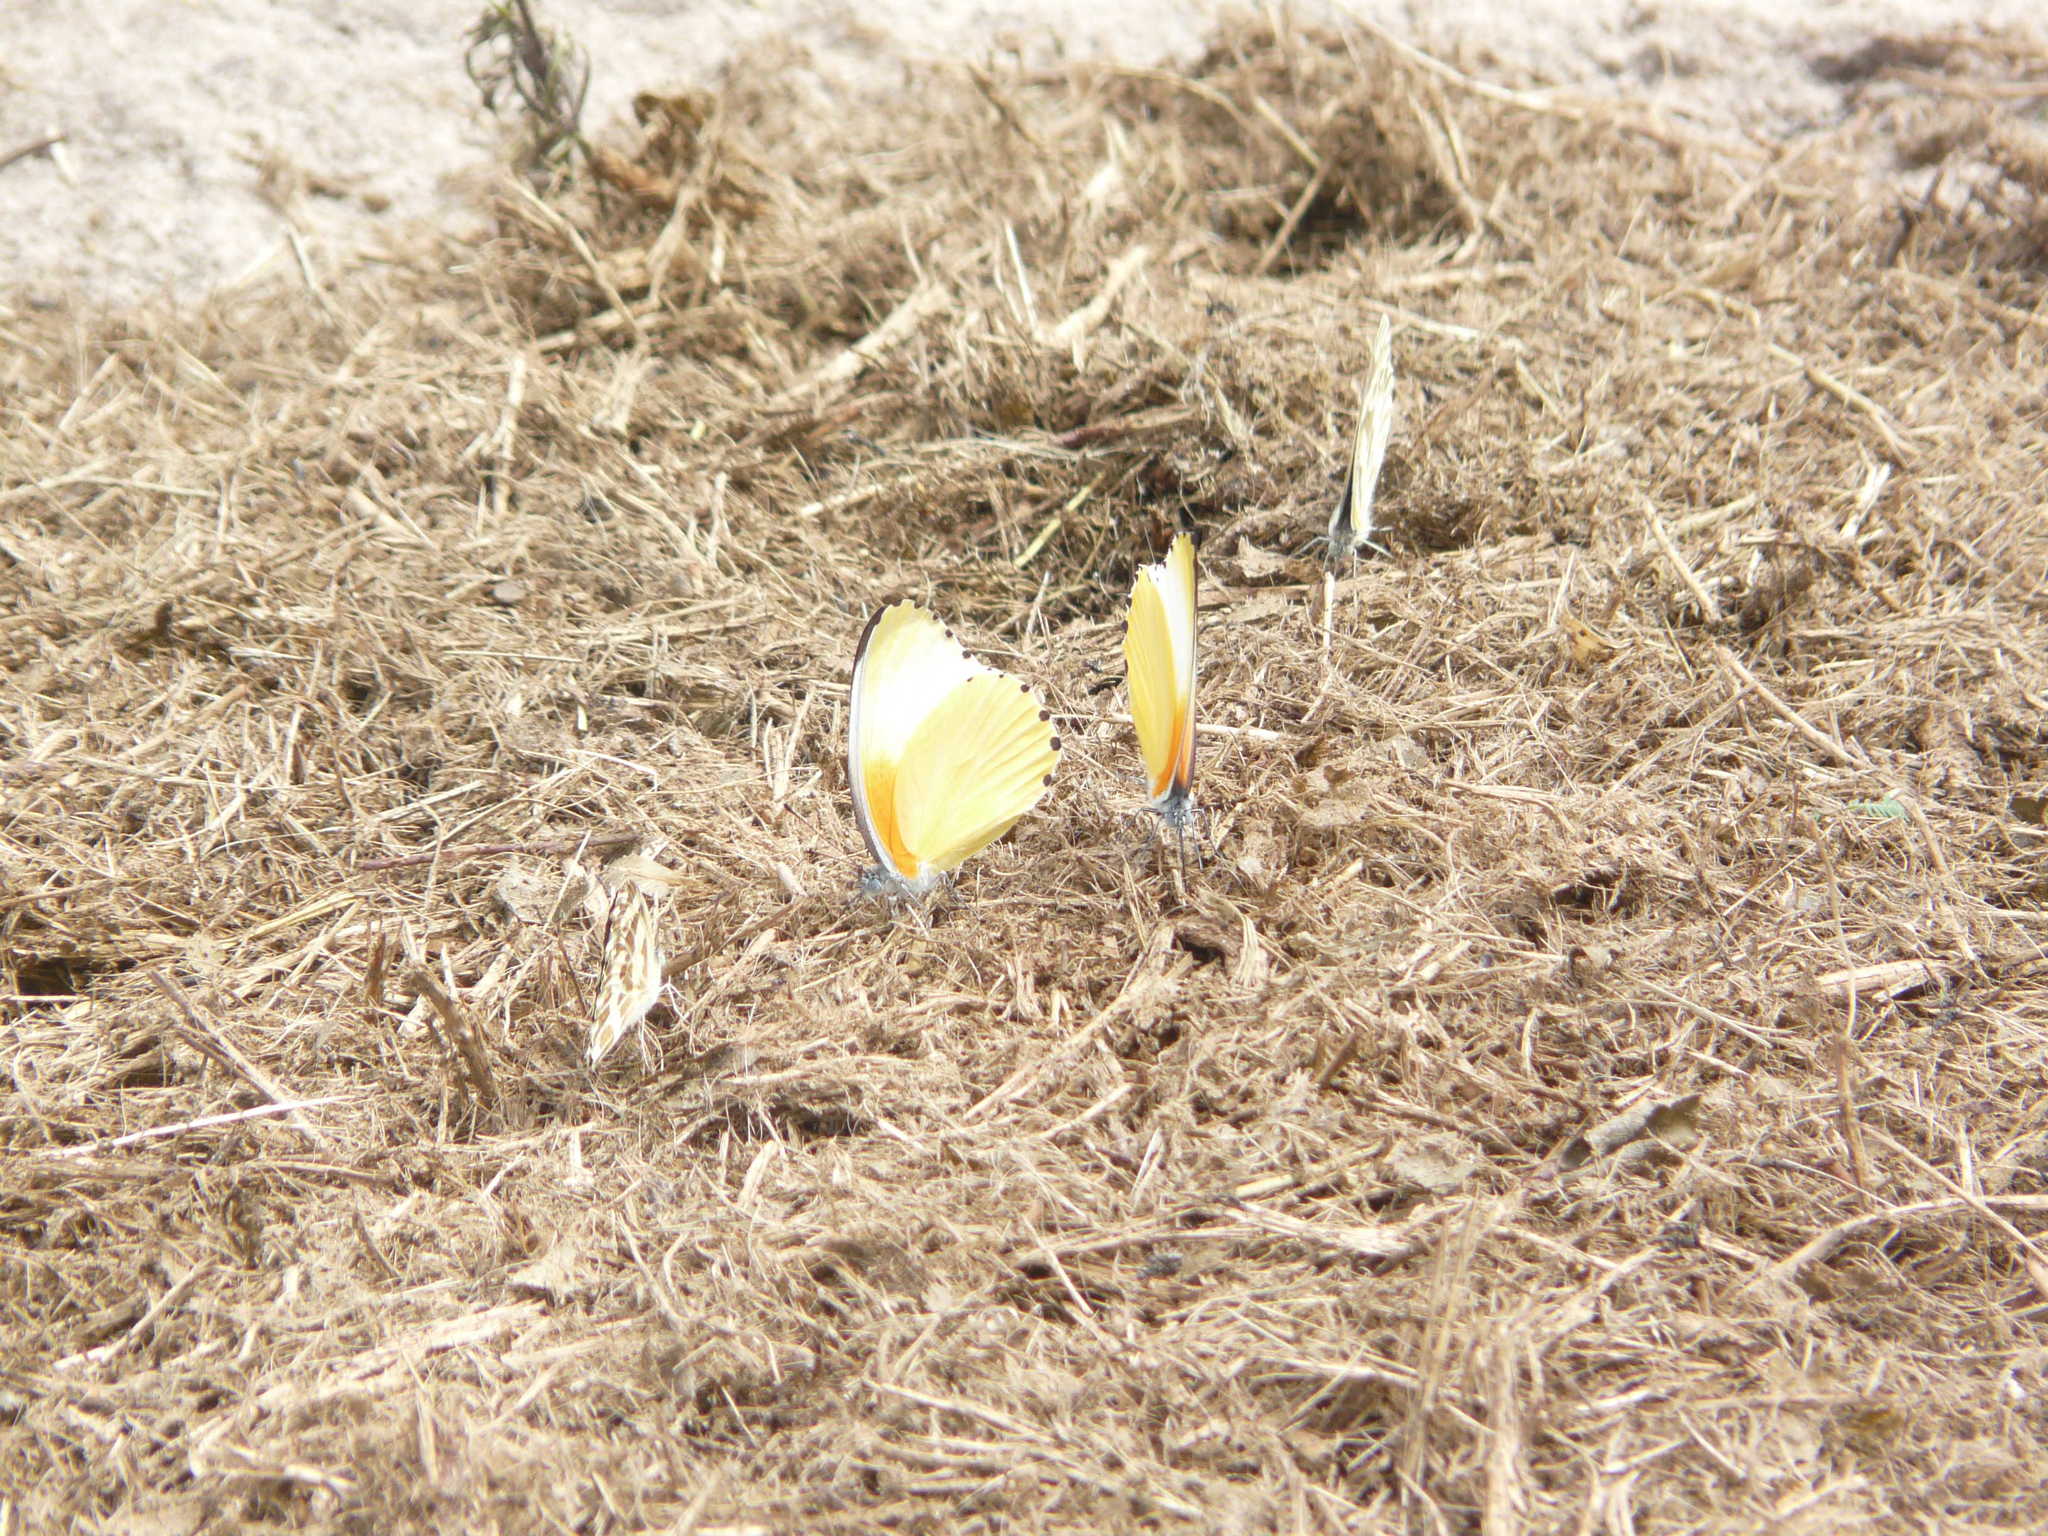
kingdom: Animalia
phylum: Arthropoda
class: Insecta
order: Lepidoptera
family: Pieridae
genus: Mylothris
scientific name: Mylothris agathina
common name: Eastern dotted border
